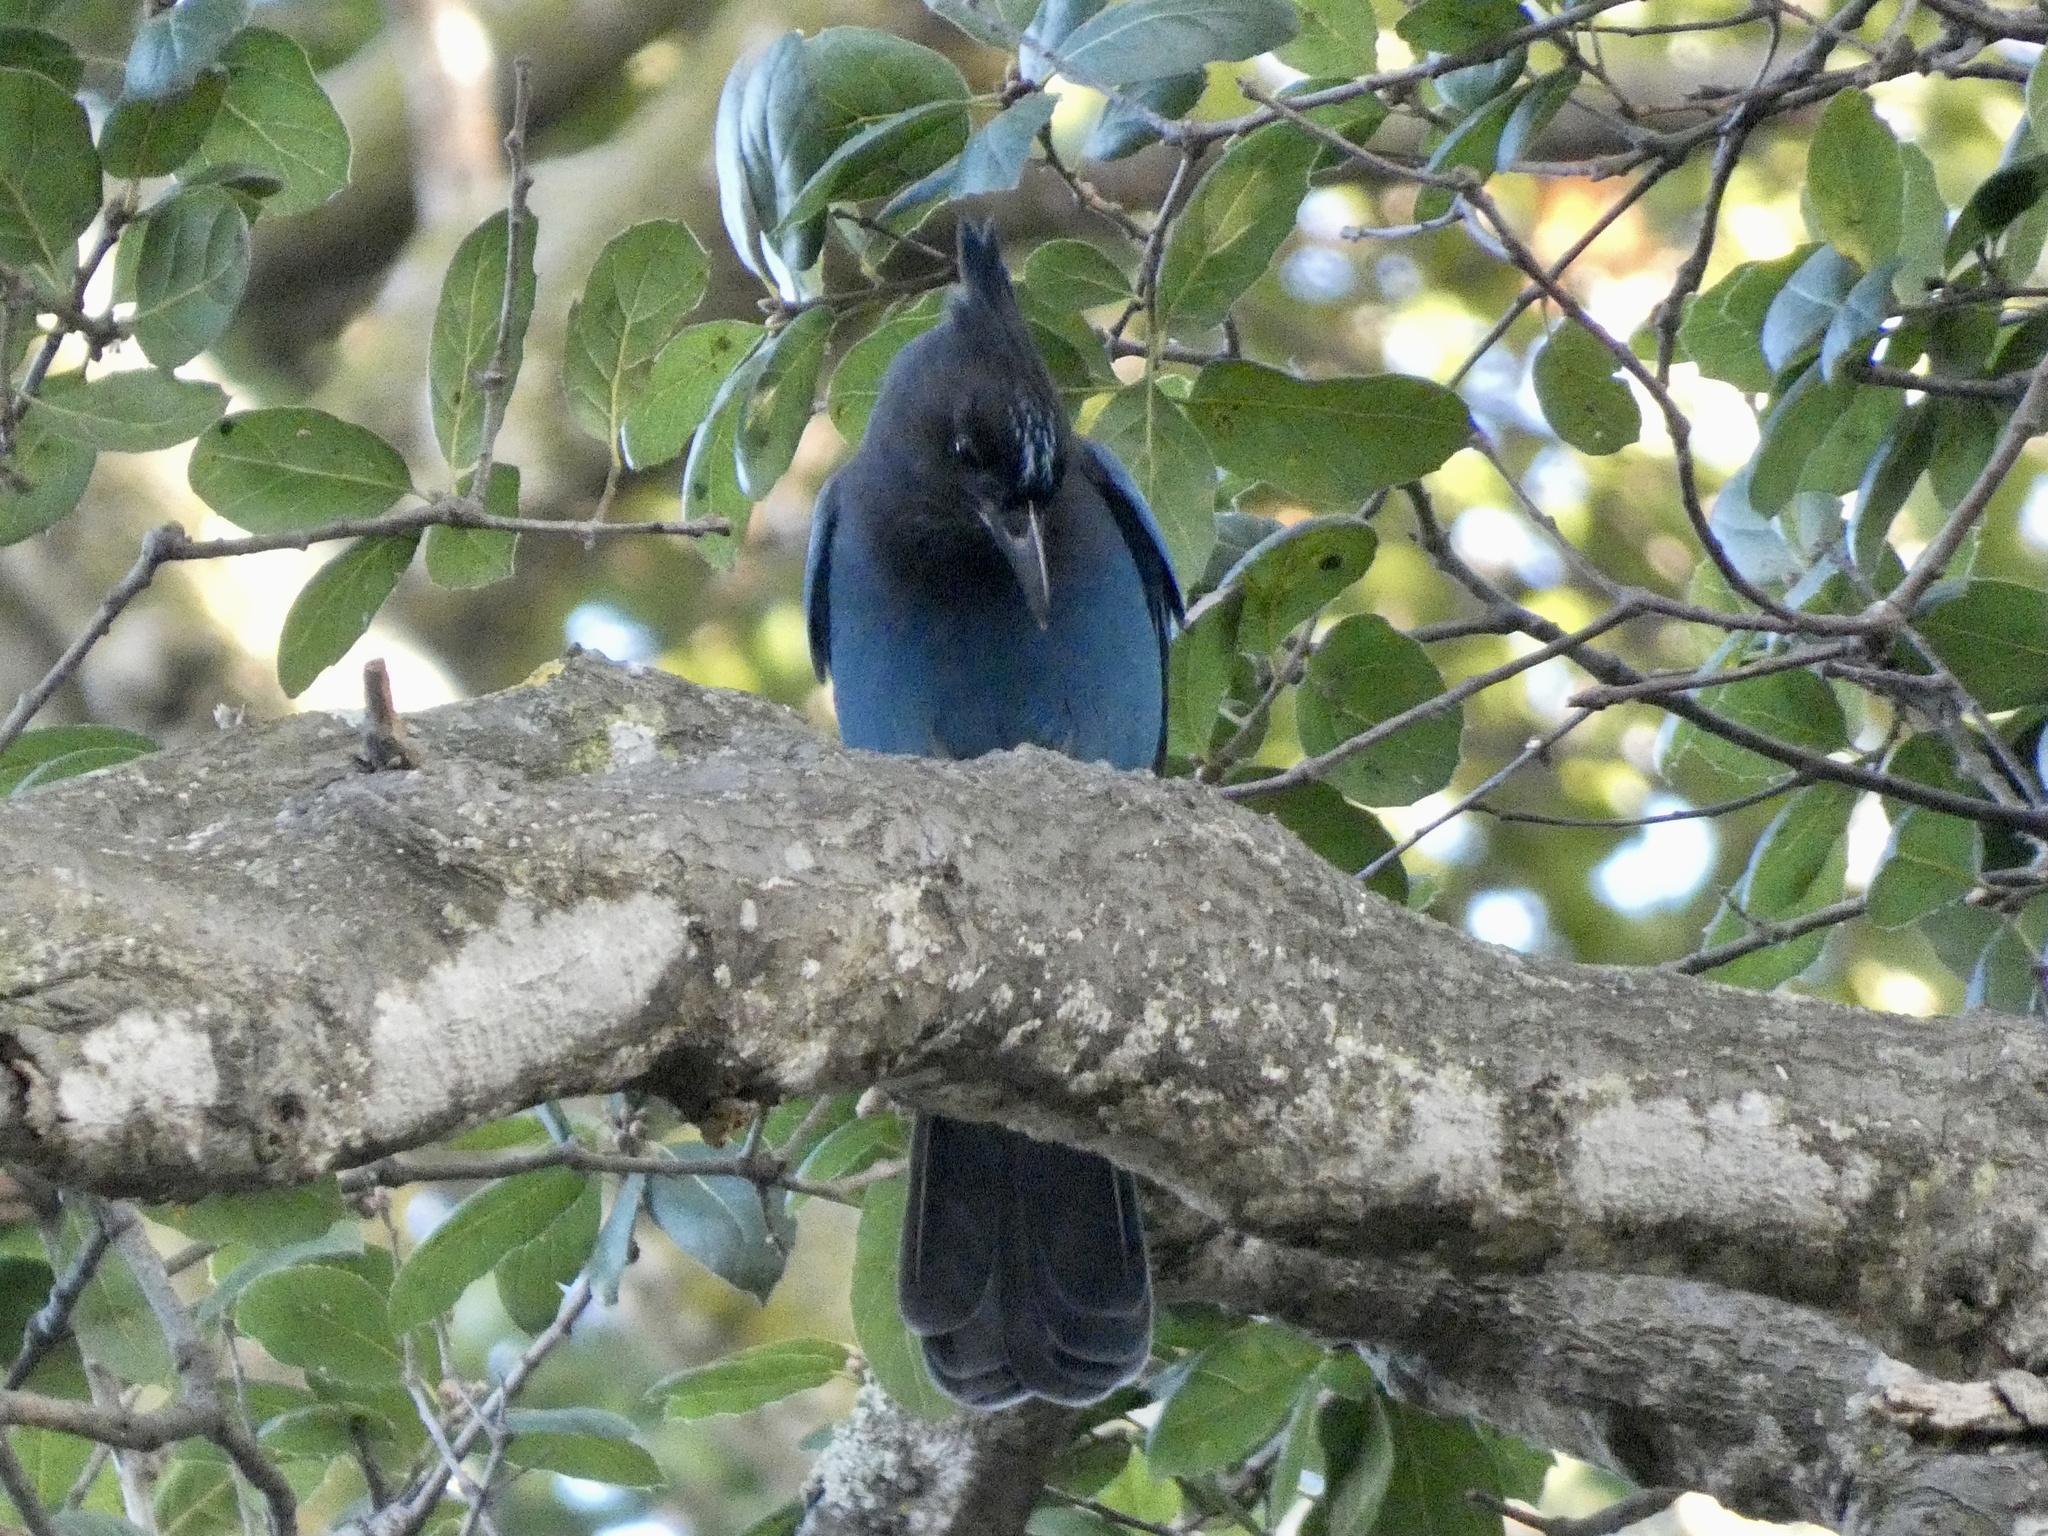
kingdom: Animalia
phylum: Chordata
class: Aves
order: Passeriformes
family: Corvidae
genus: Cyanocitta
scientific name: Cyanocitta stelleri
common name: Steller's jay
